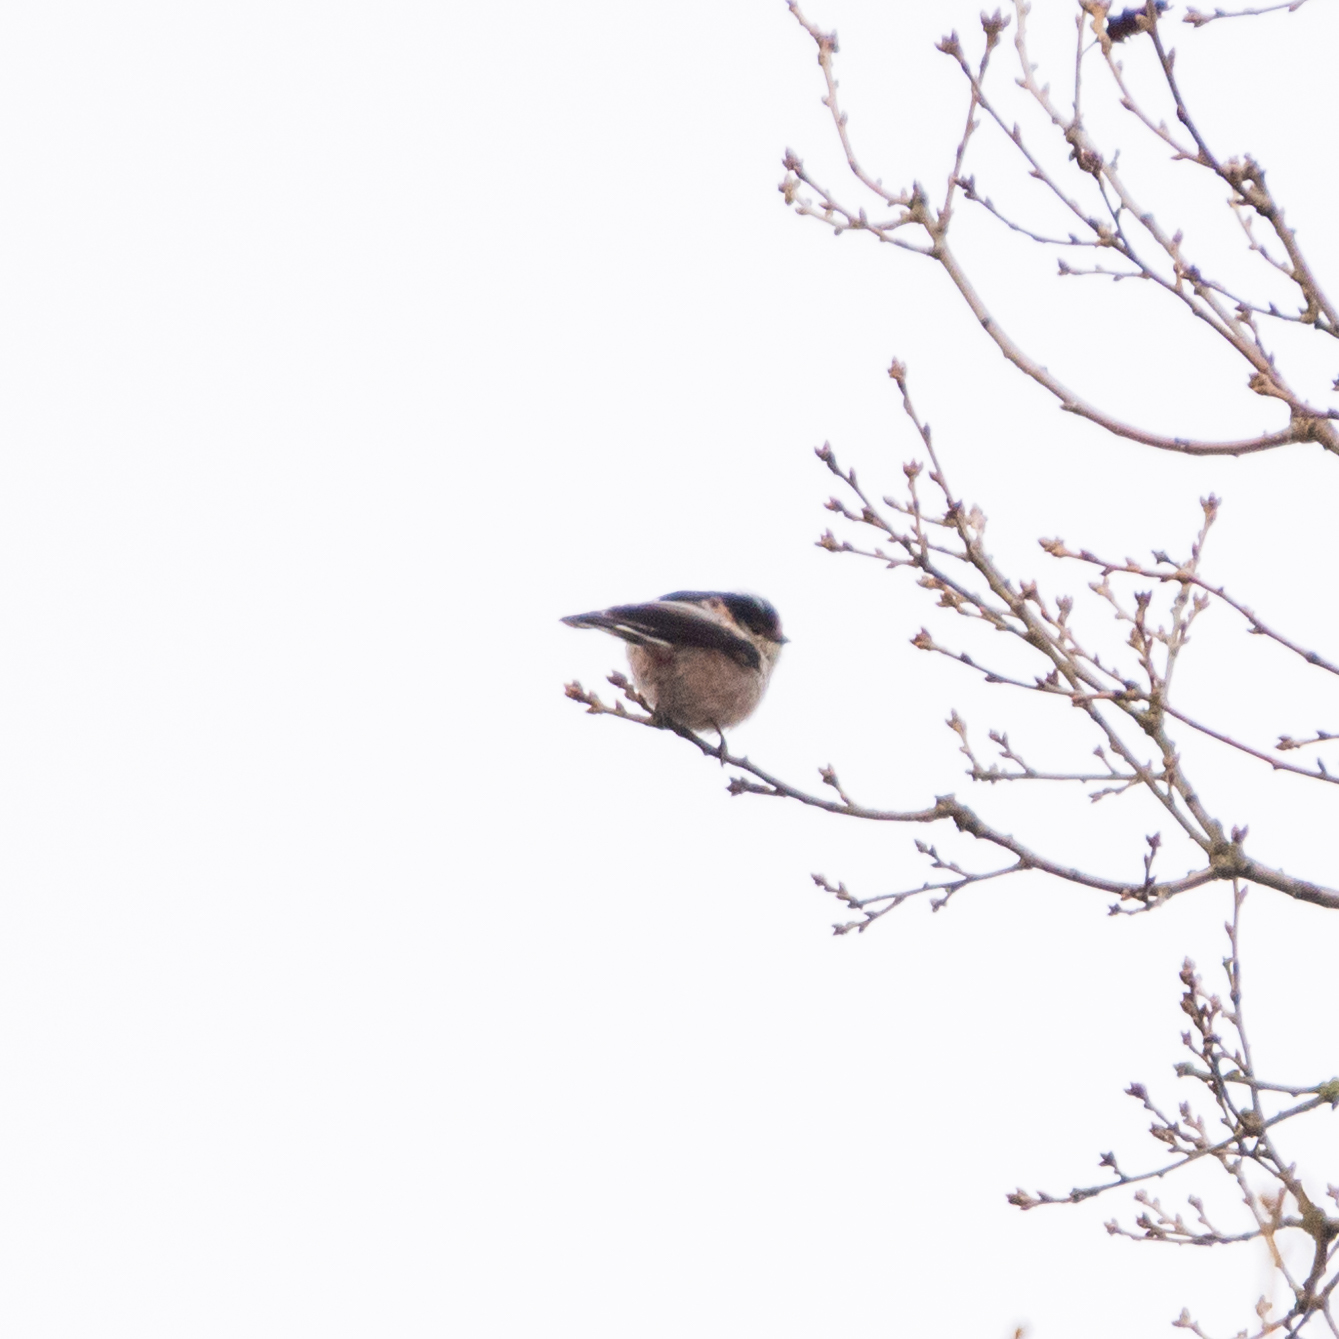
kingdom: Animalia
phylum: Chordata
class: Aves
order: Passeriformes
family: Aegithalidae
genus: Aegithalos
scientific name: Aegithalos caudatus
